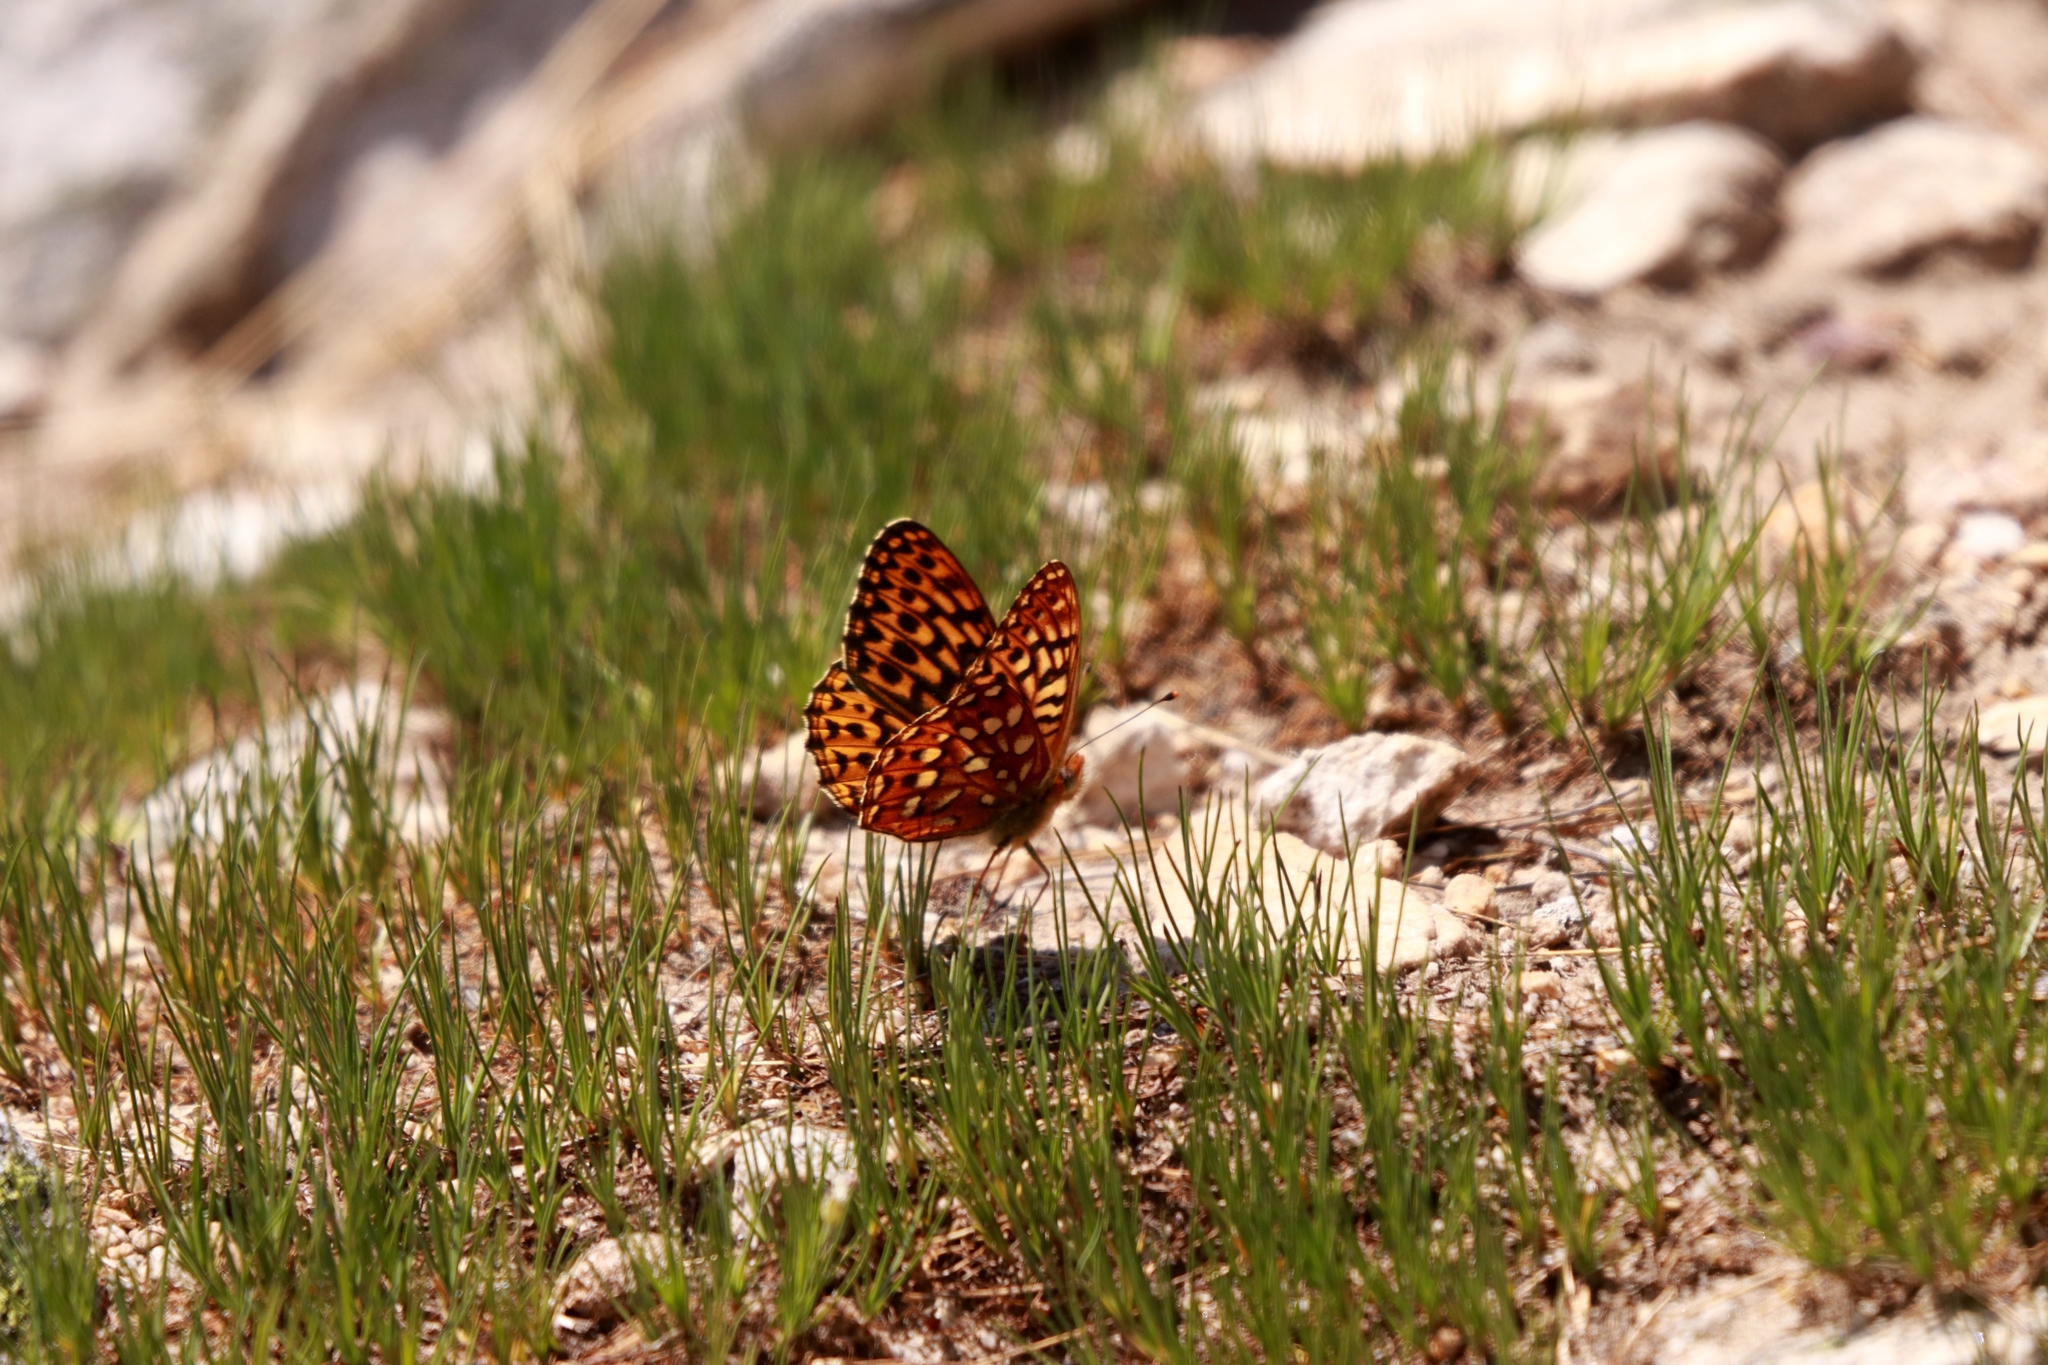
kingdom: Animalia
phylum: Arthropoda
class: Insecta
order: Lepidoptera
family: Nymphalidae
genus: Speyeria
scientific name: Speyeria hydaspe
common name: Hydaspe fritillary
